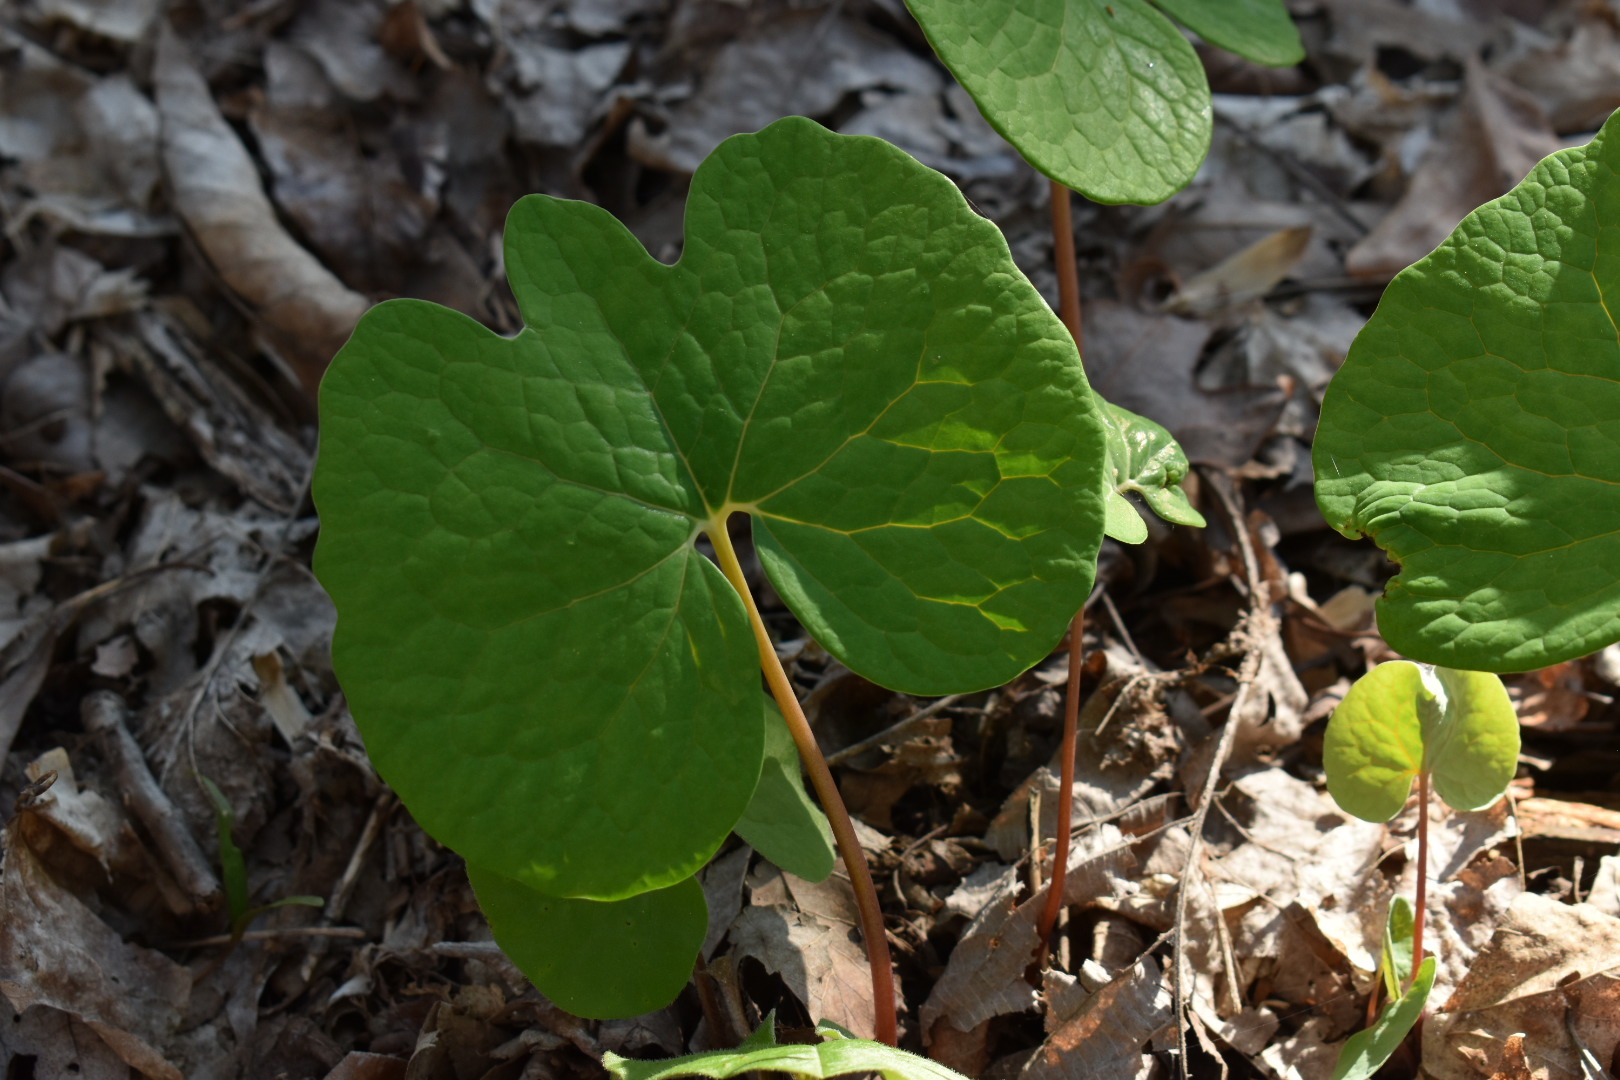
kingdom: Plantae
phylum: Tracheophyta
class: Magnoliopsida
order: Ranunculales
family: Papaveraceae
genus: Sanguinaria
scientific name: Sanguinaria canadensis
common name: Bloodroot
